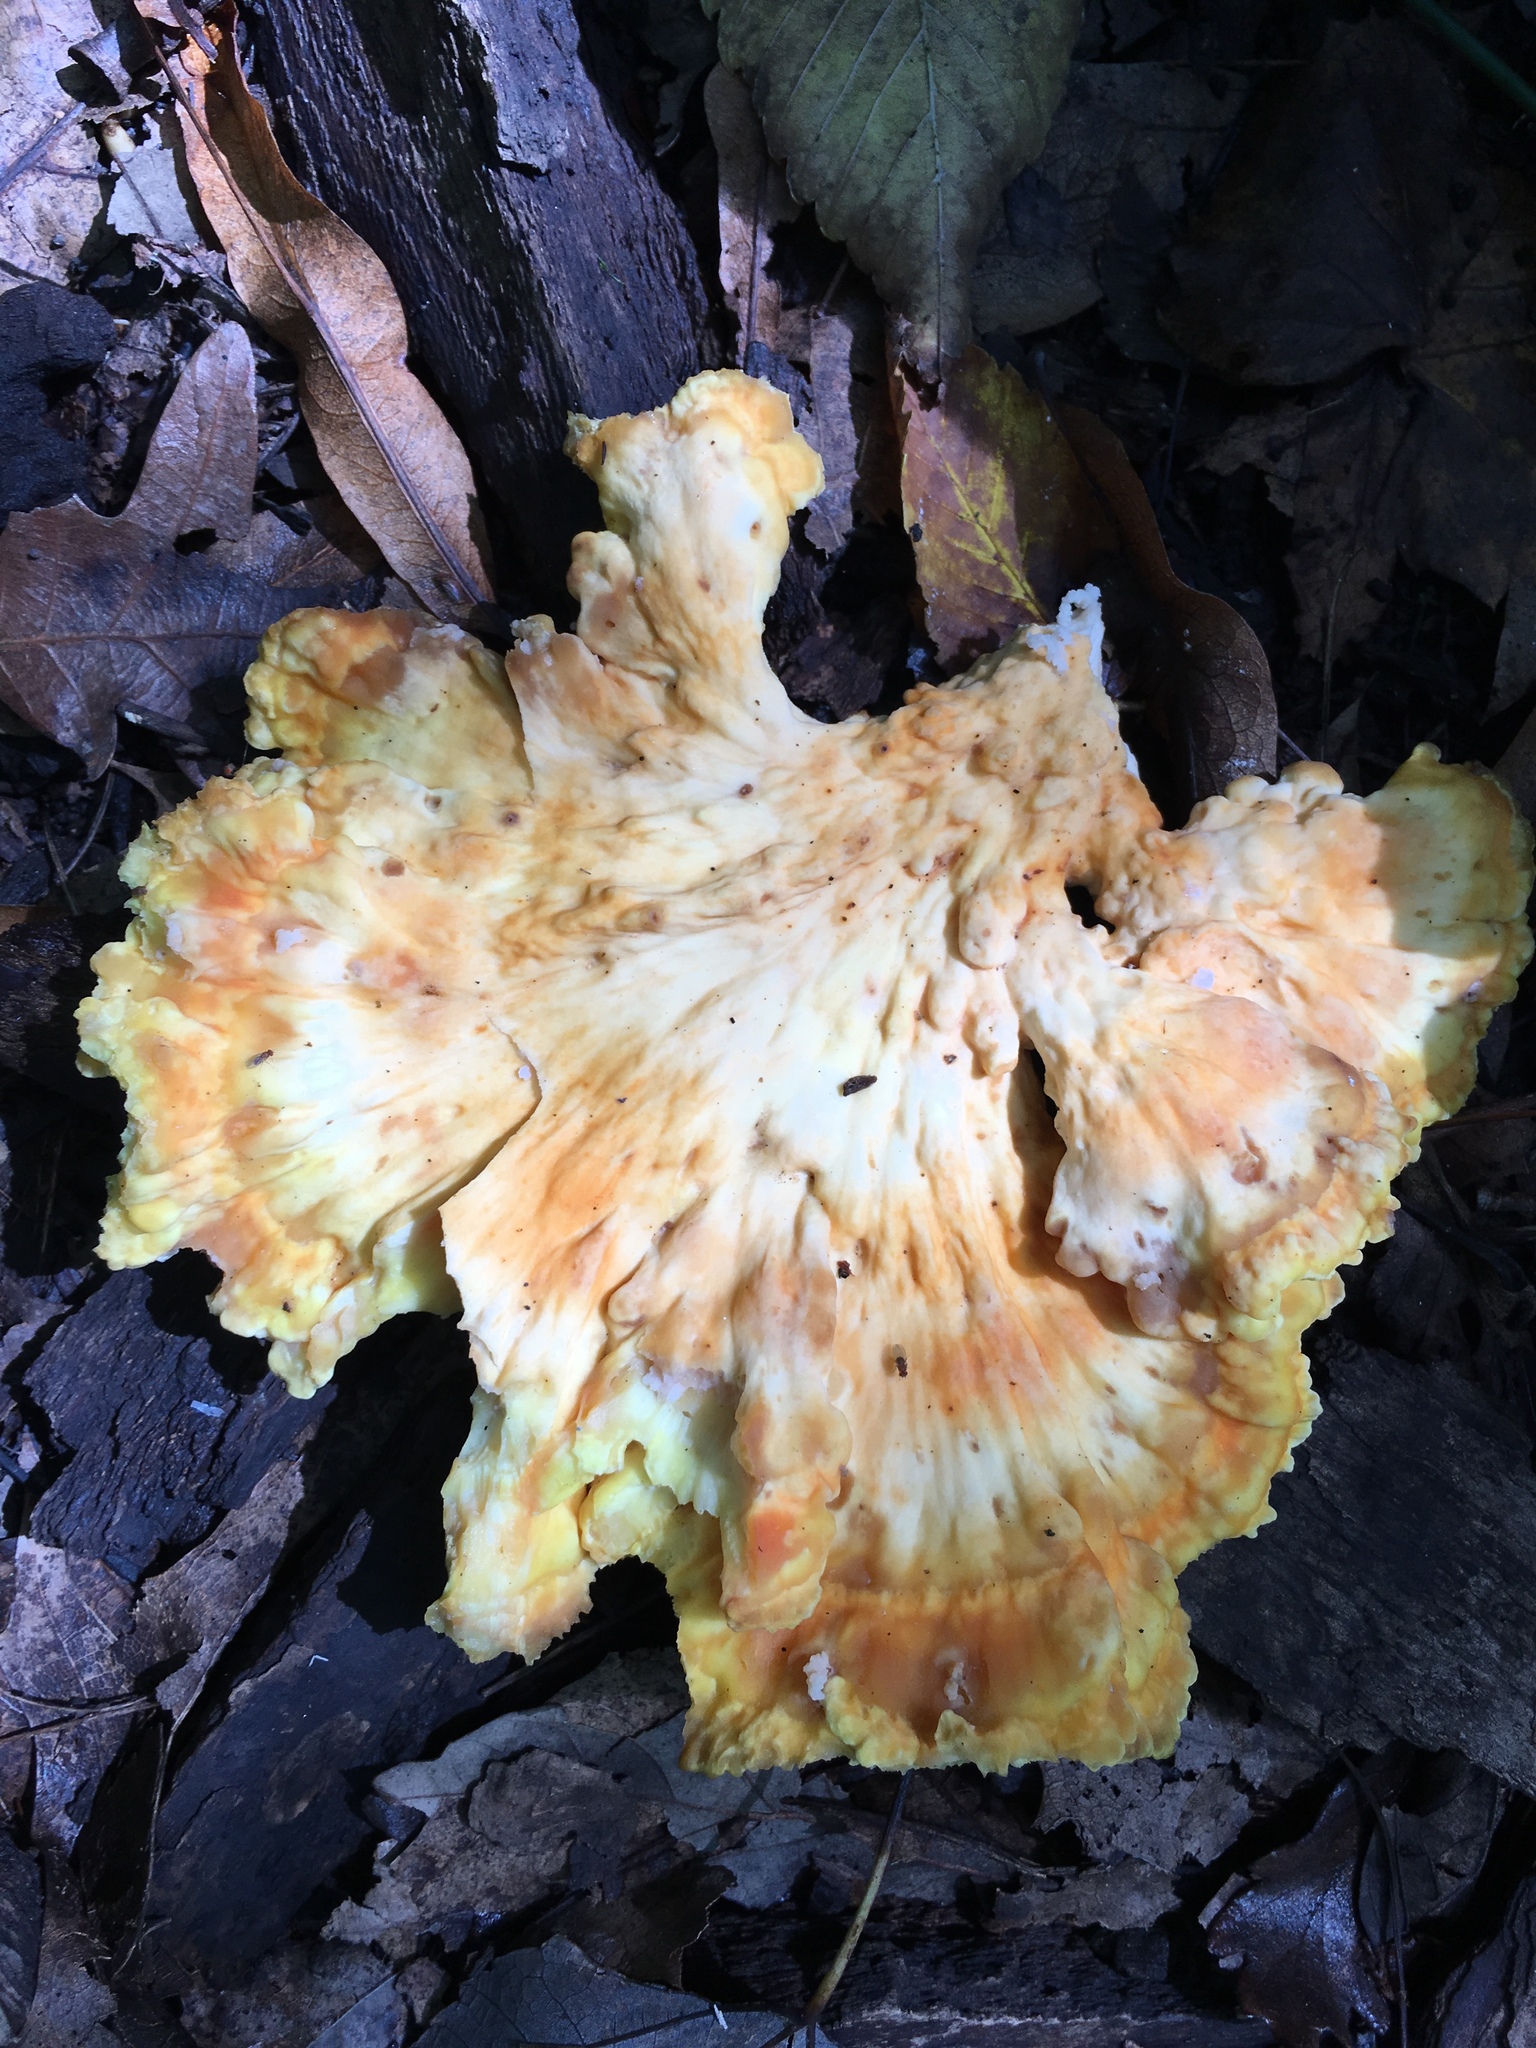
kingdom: Fungi
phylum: Basidiomycota
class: Agaricomycetes
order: Polyporales
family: Laetiporaceae
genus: Laetiporus
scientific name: Laetiporus sulphureus
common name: Chicken of the woods
